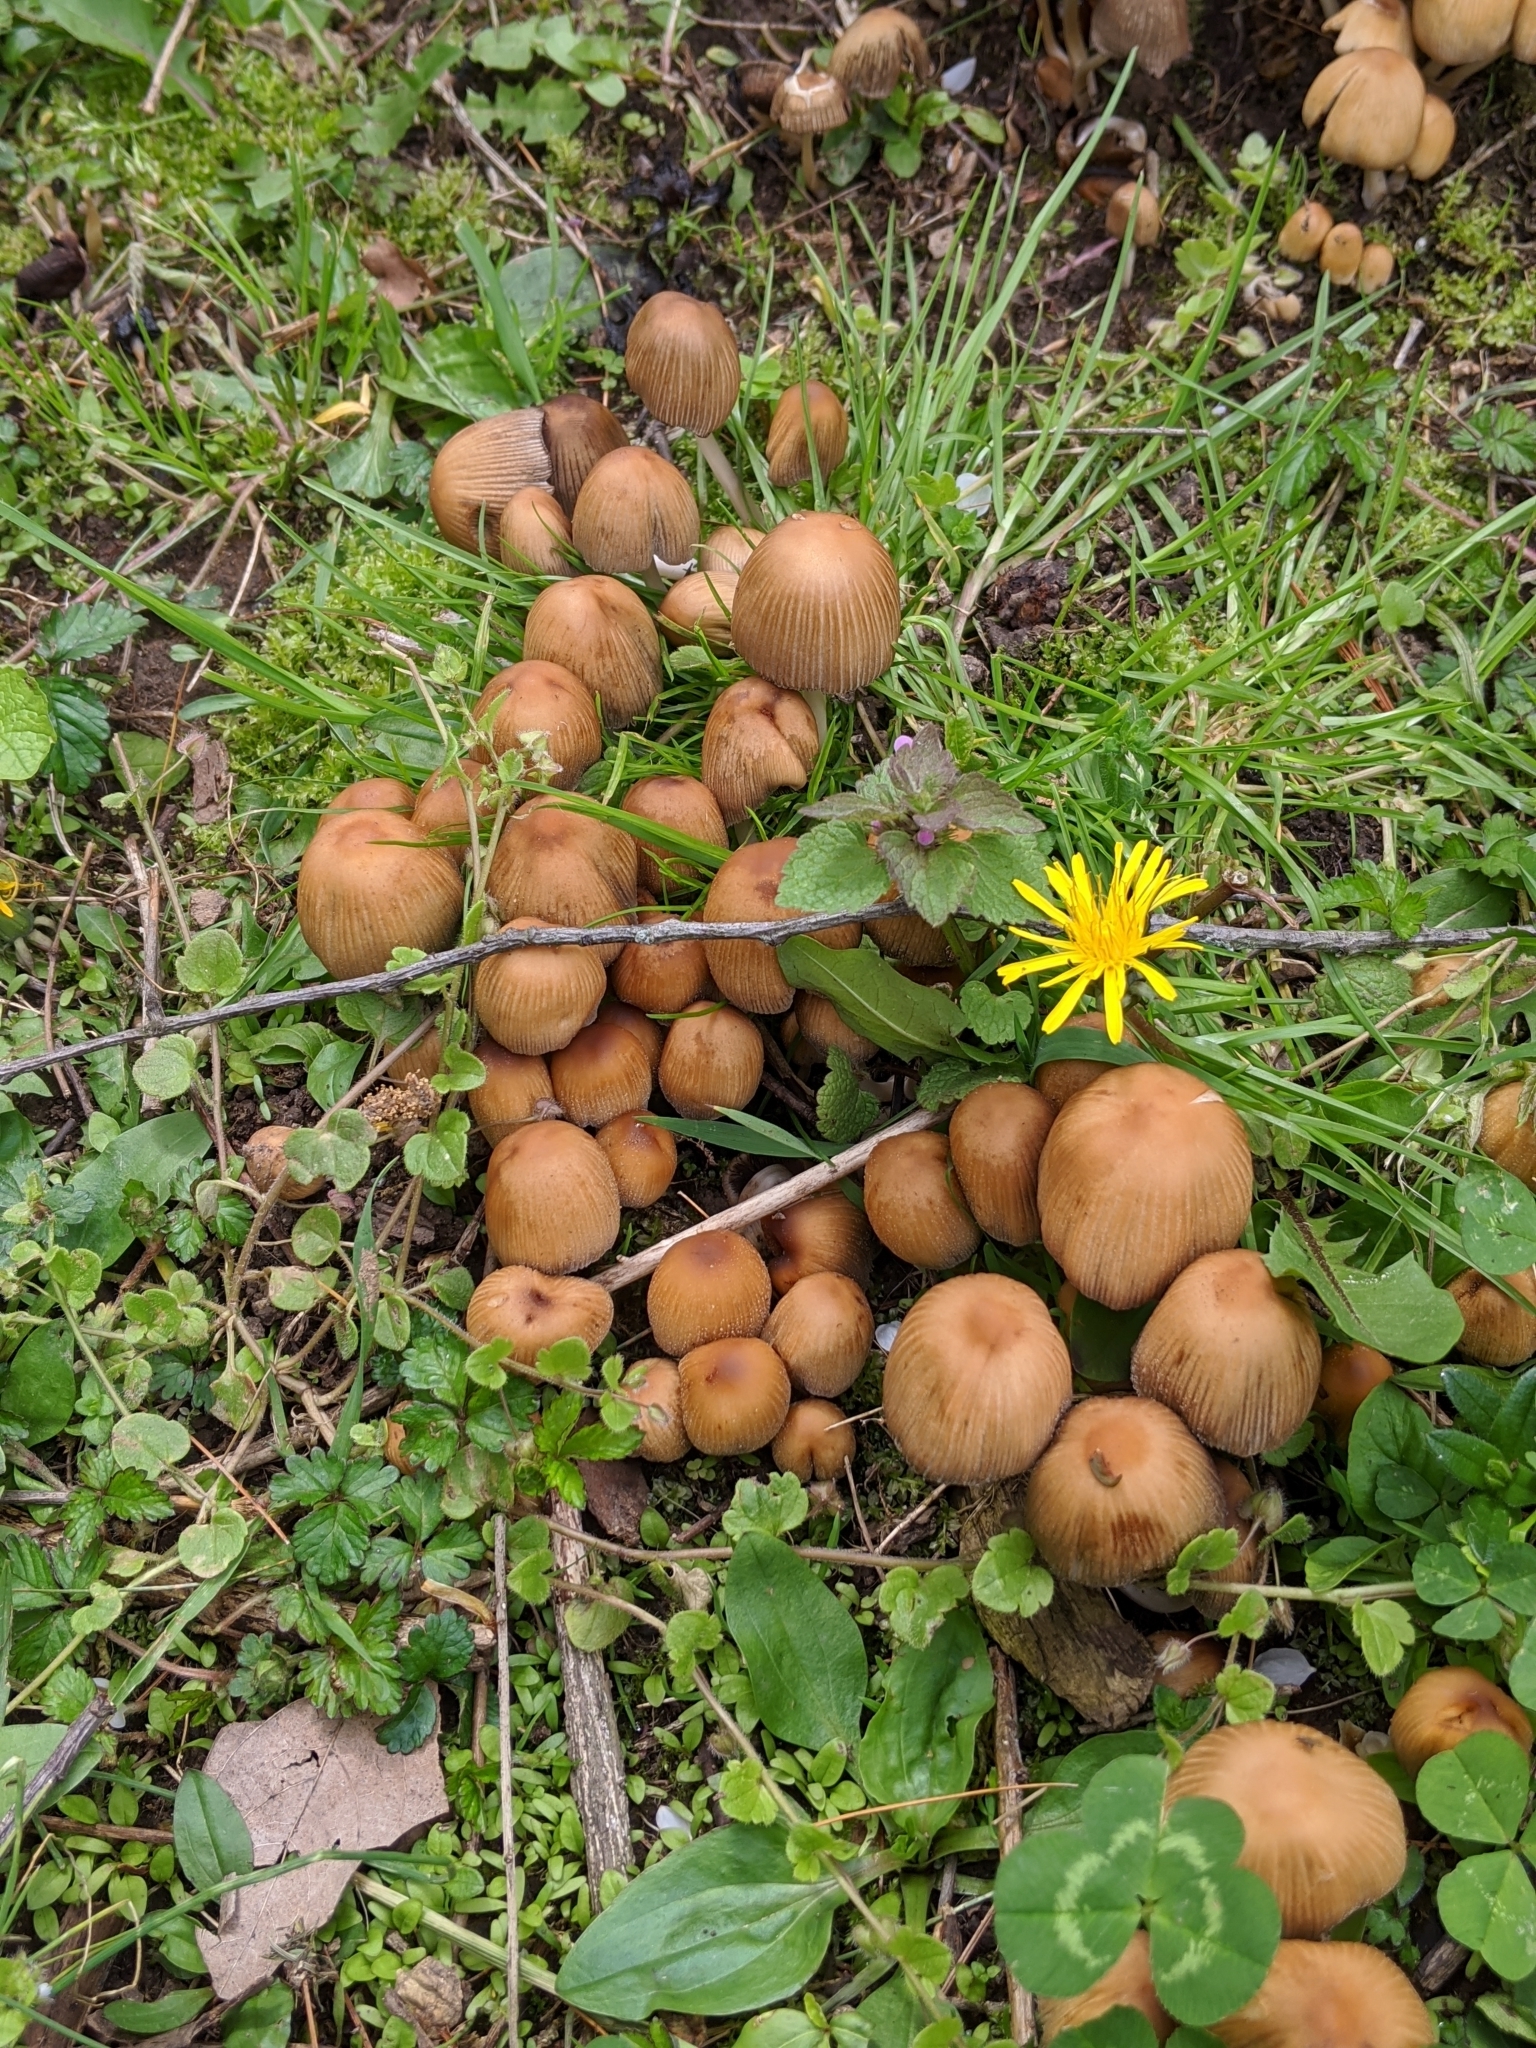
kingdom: Fungi
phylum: Basidiomycota
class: Agaricomycetes
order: Agaricales
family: Psathyrellaceae
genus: Coprinellus
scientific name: Coprinellus
